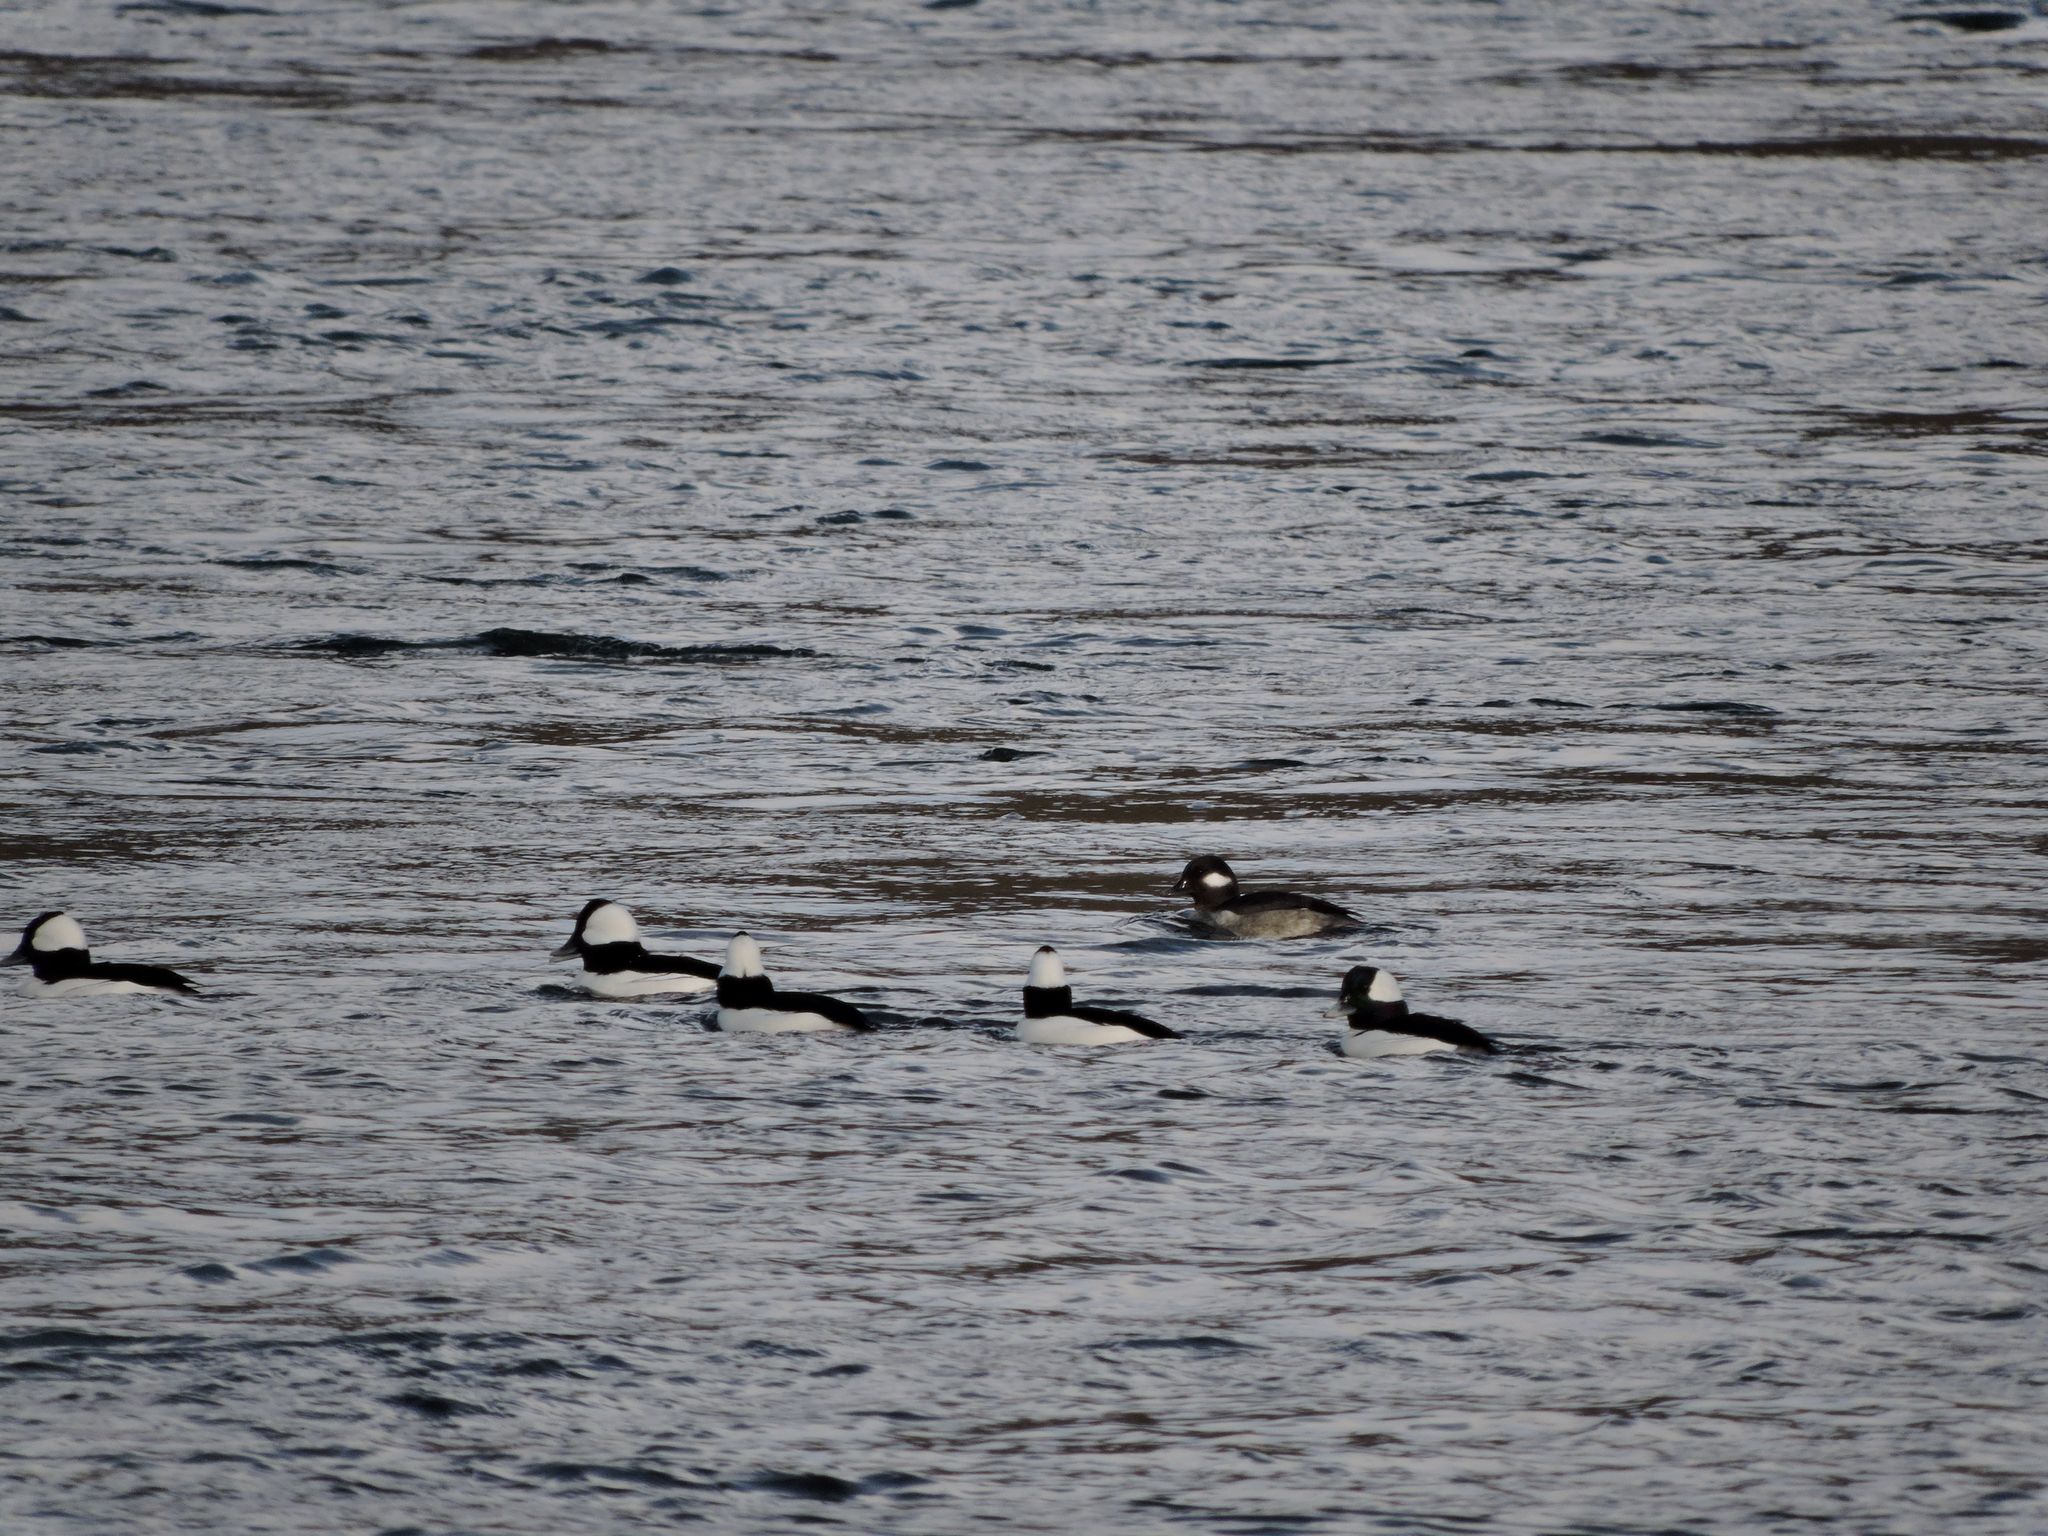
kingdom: Animalia
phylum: Chordata
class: Aves
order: Anseriformes
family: Anatidae
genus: Bucephala
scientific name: Bucephala albeola
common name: Bufflehead
